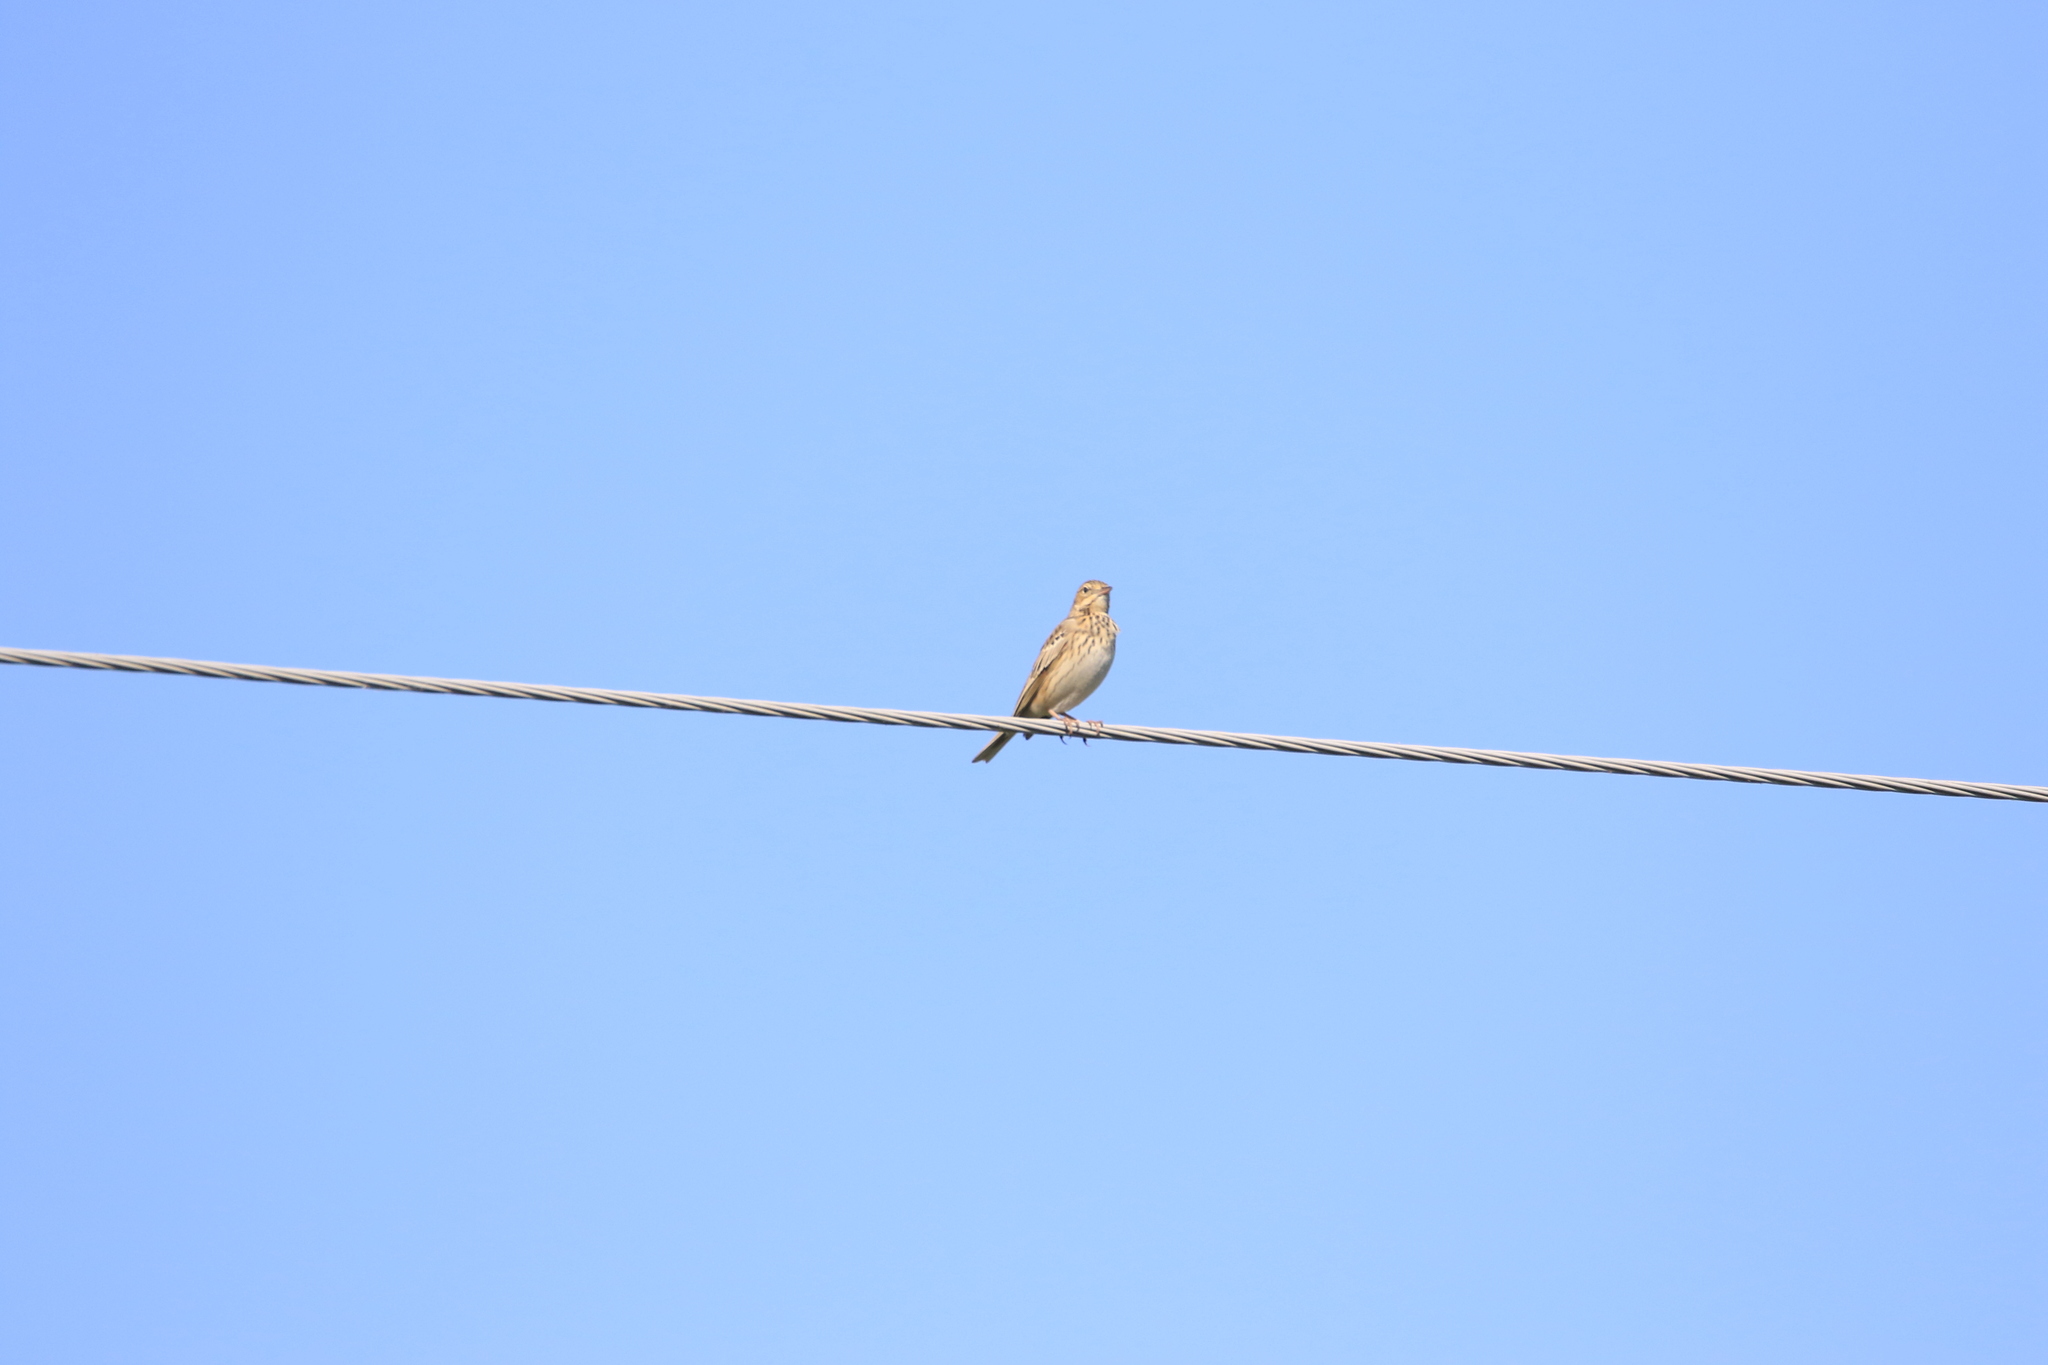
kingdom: Animalia
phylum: Chordata
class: Aves
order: Passeriformes
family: Motacillidae
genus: Anthus
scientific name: Anthus trivialis
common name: Tree pipit
